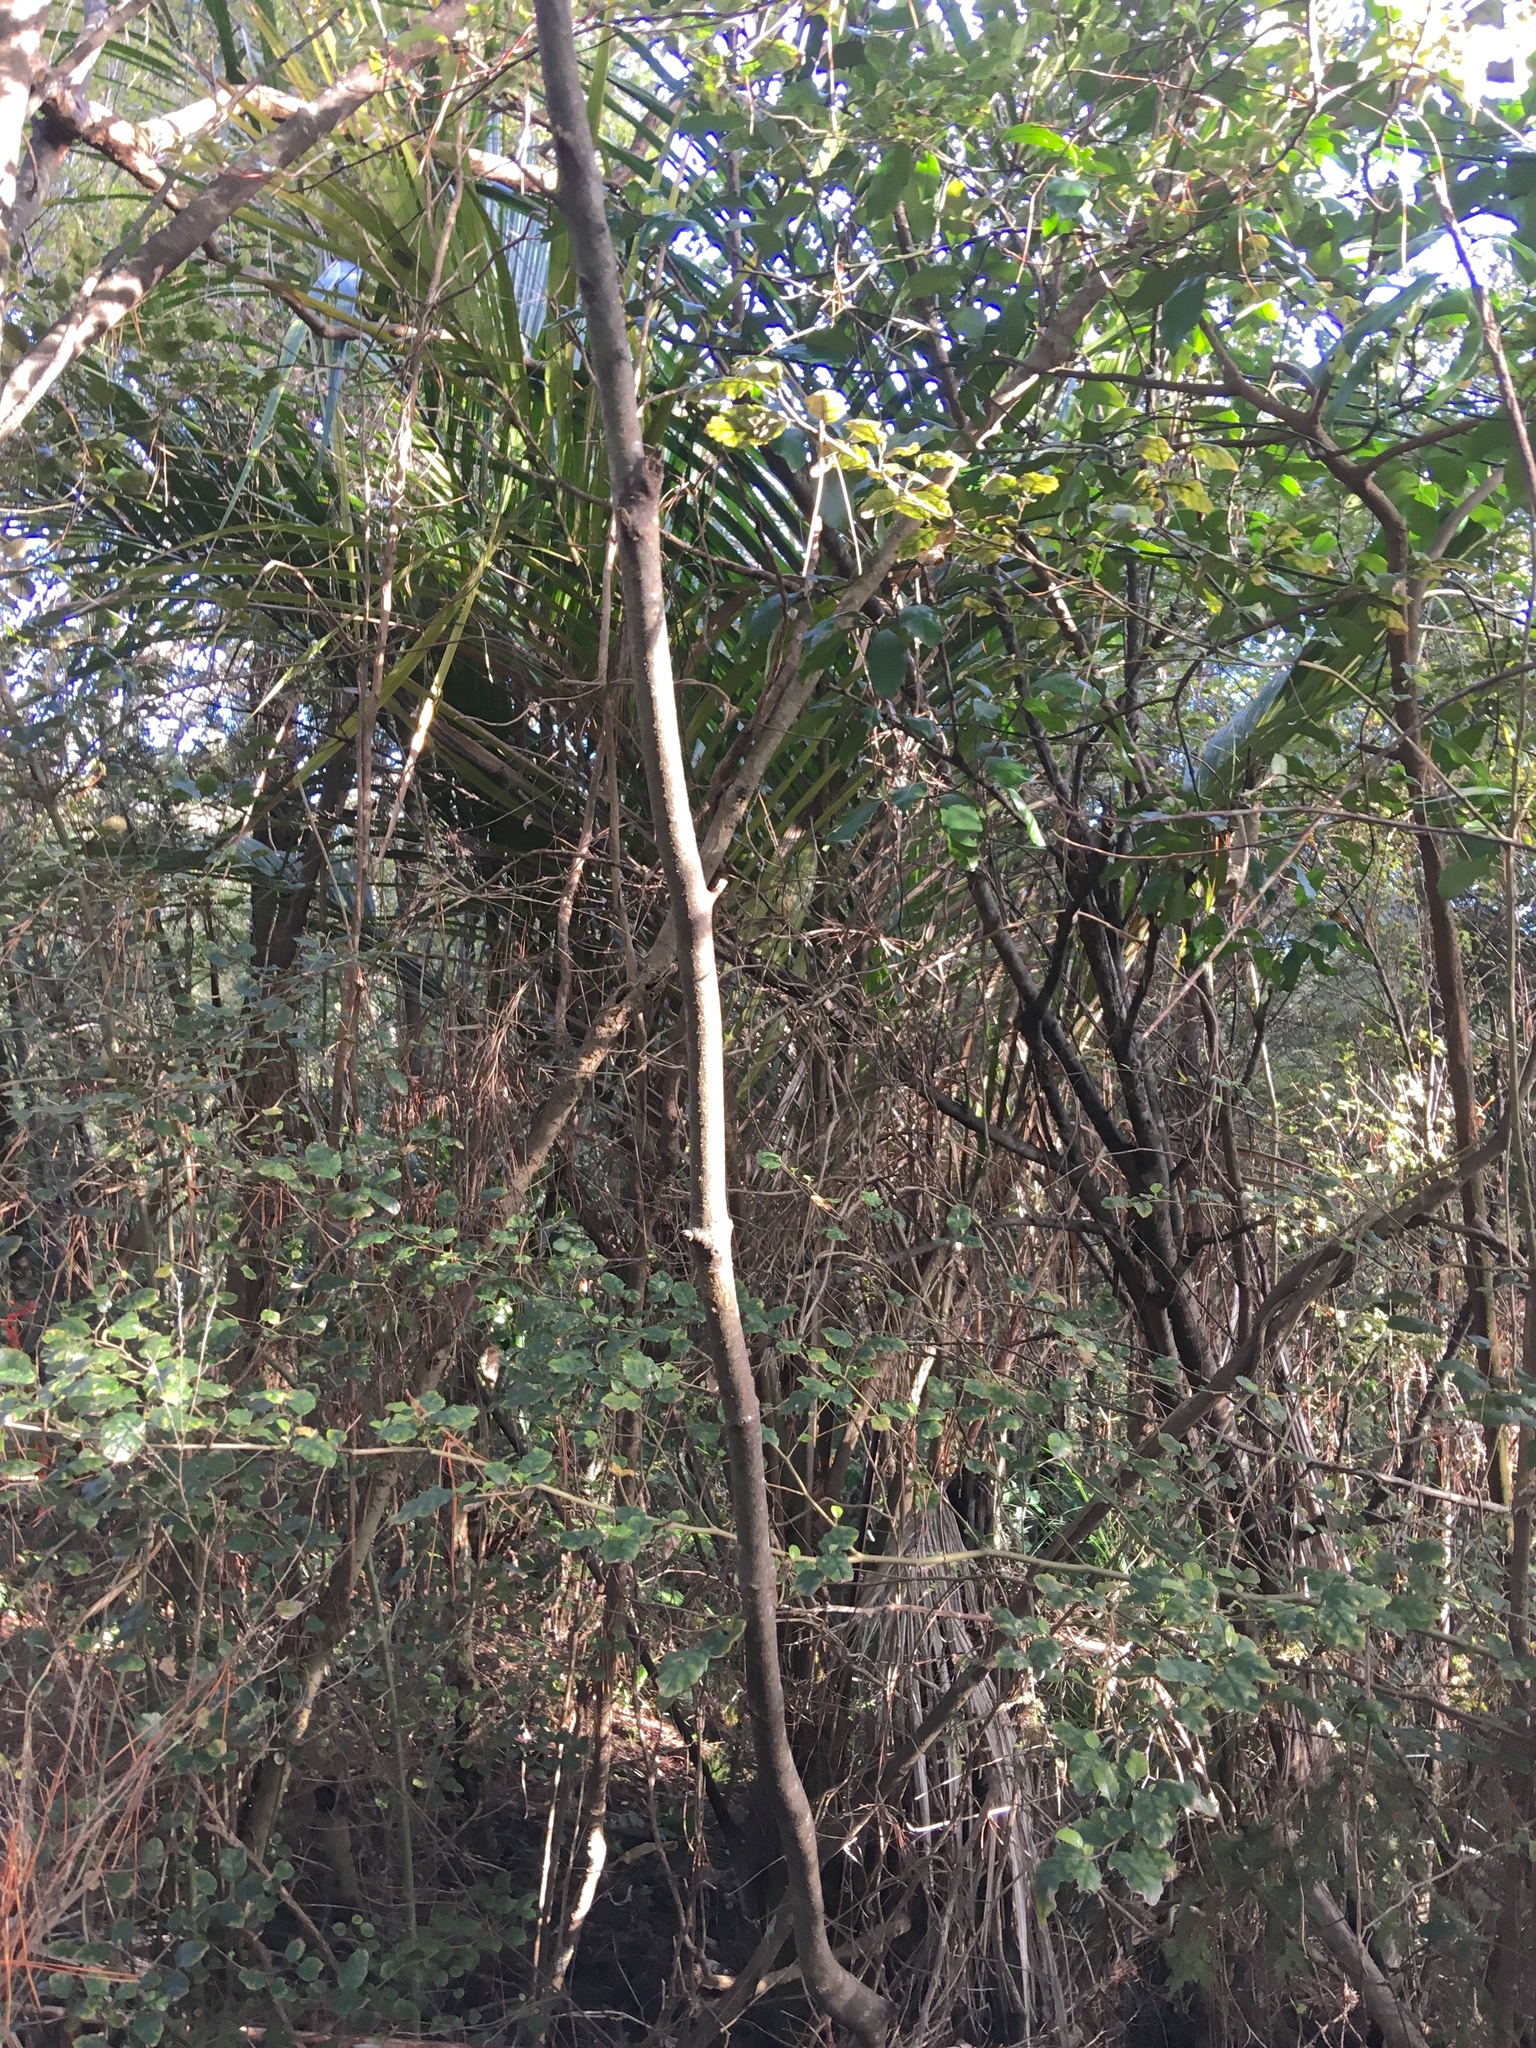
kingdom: Plantae
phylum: Tracheophyta
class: Liliopsida
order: Arecales
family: Arecaceae
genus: Rhopalostylis
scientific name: Rhopalostylis sapida
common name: Feather-duster palm
